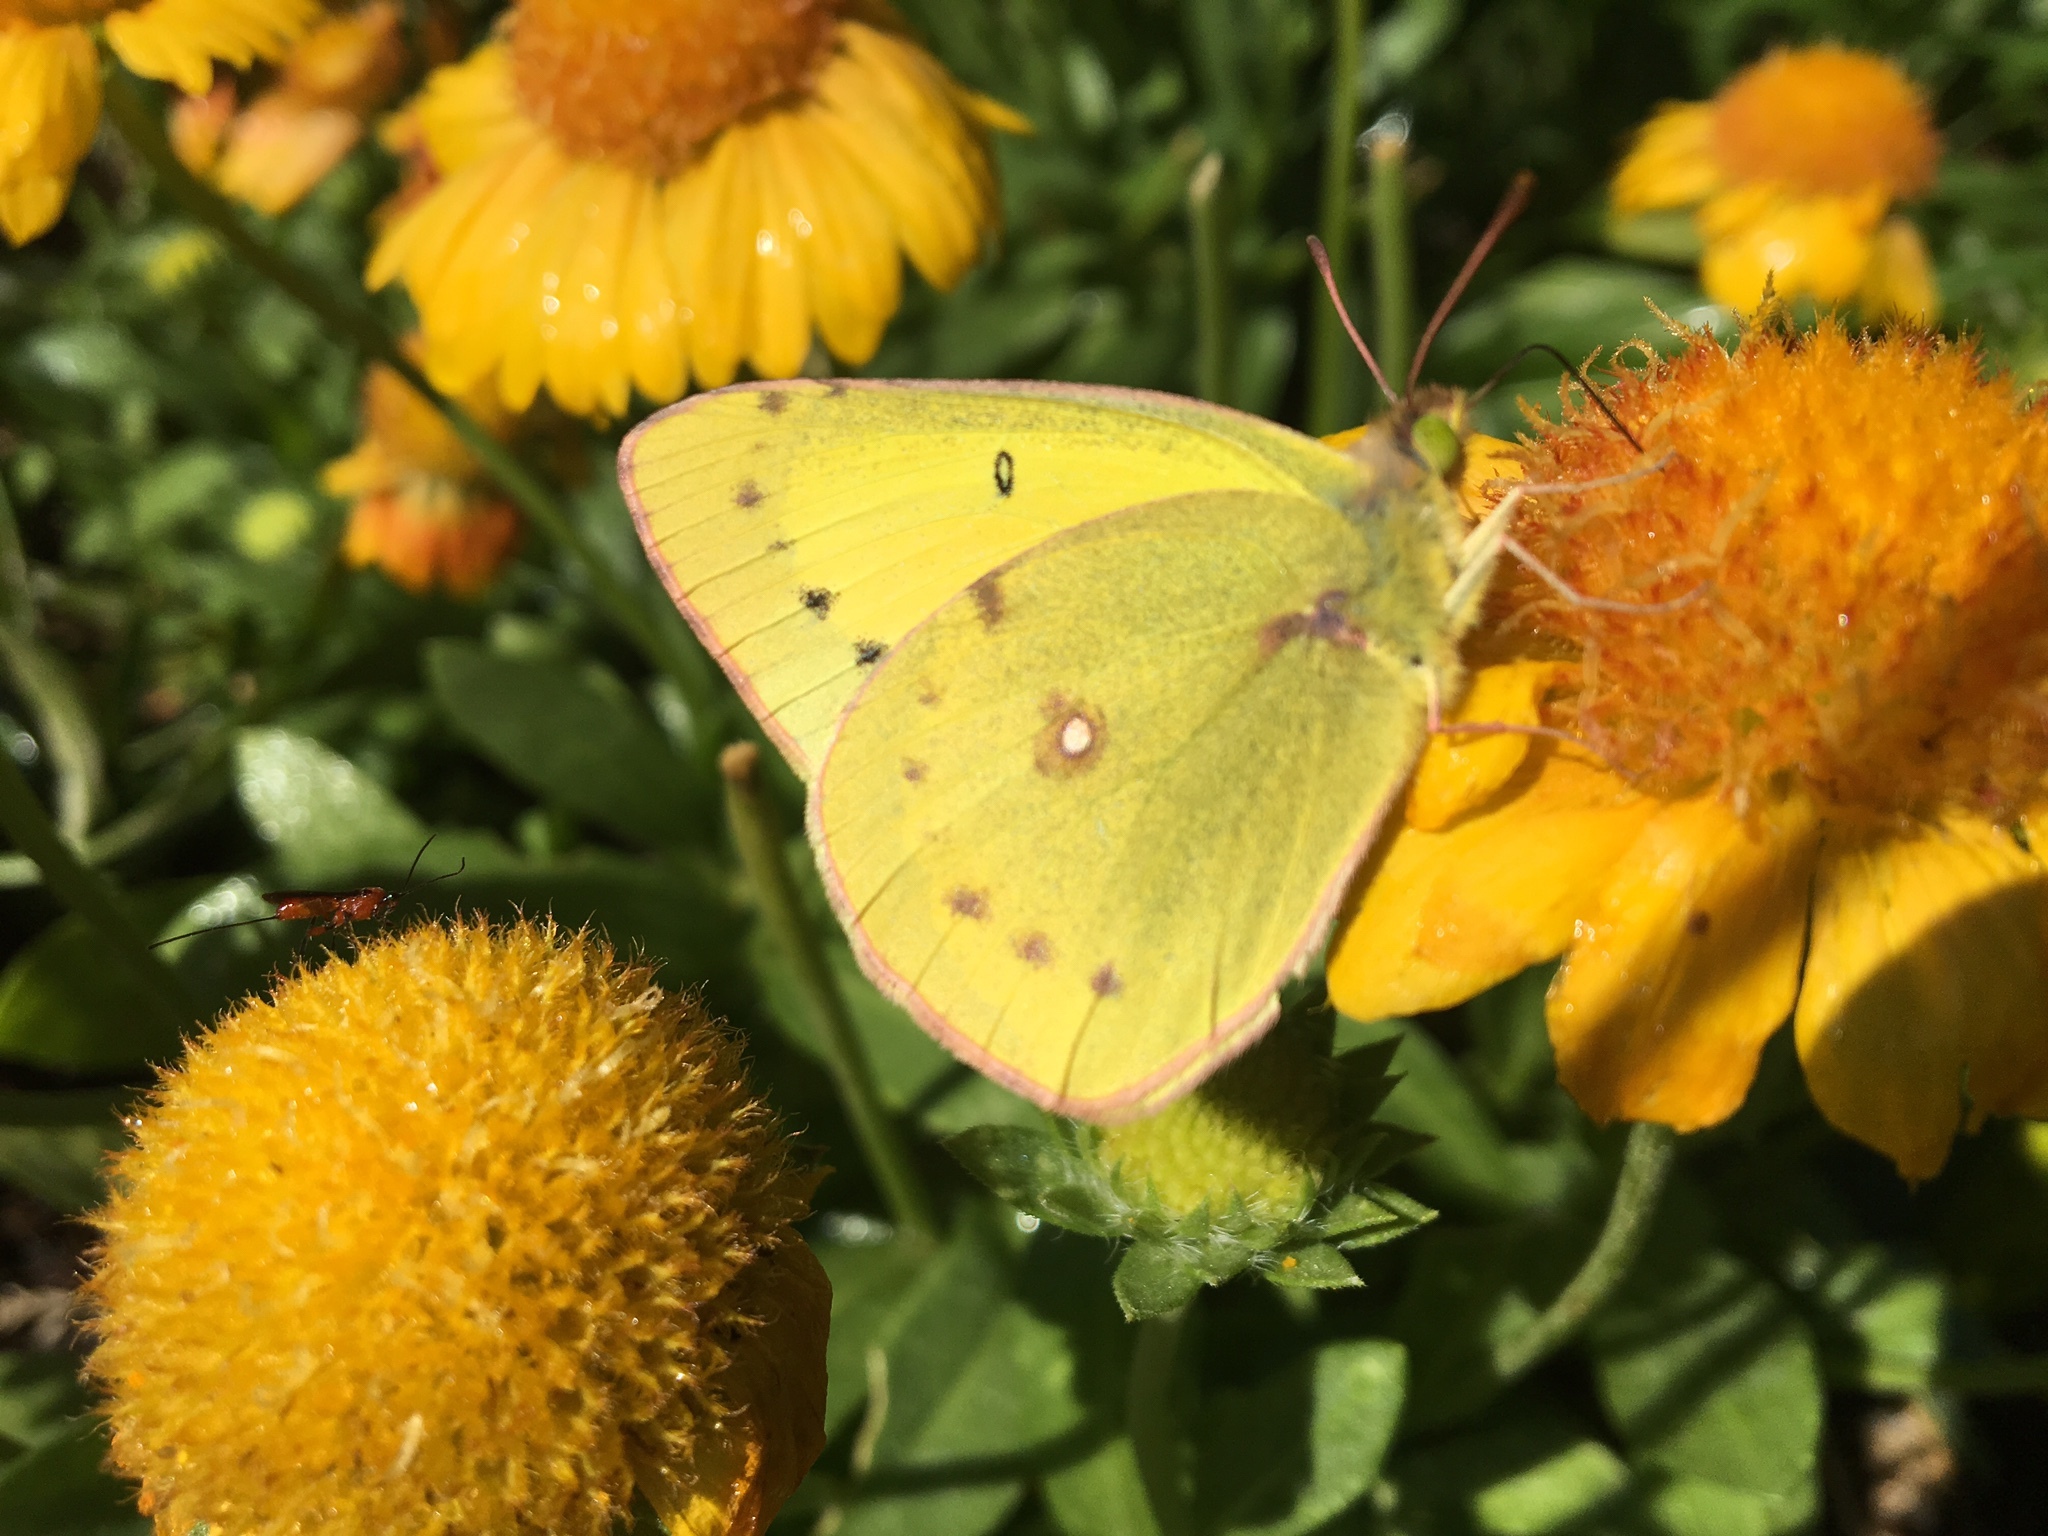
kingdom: Animalia
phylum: Arthropoda
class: Insecta
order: Lepidoptera
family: Pieridae
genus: Colias
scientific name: Colias eurytheme
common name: Alfalfa butterfly
